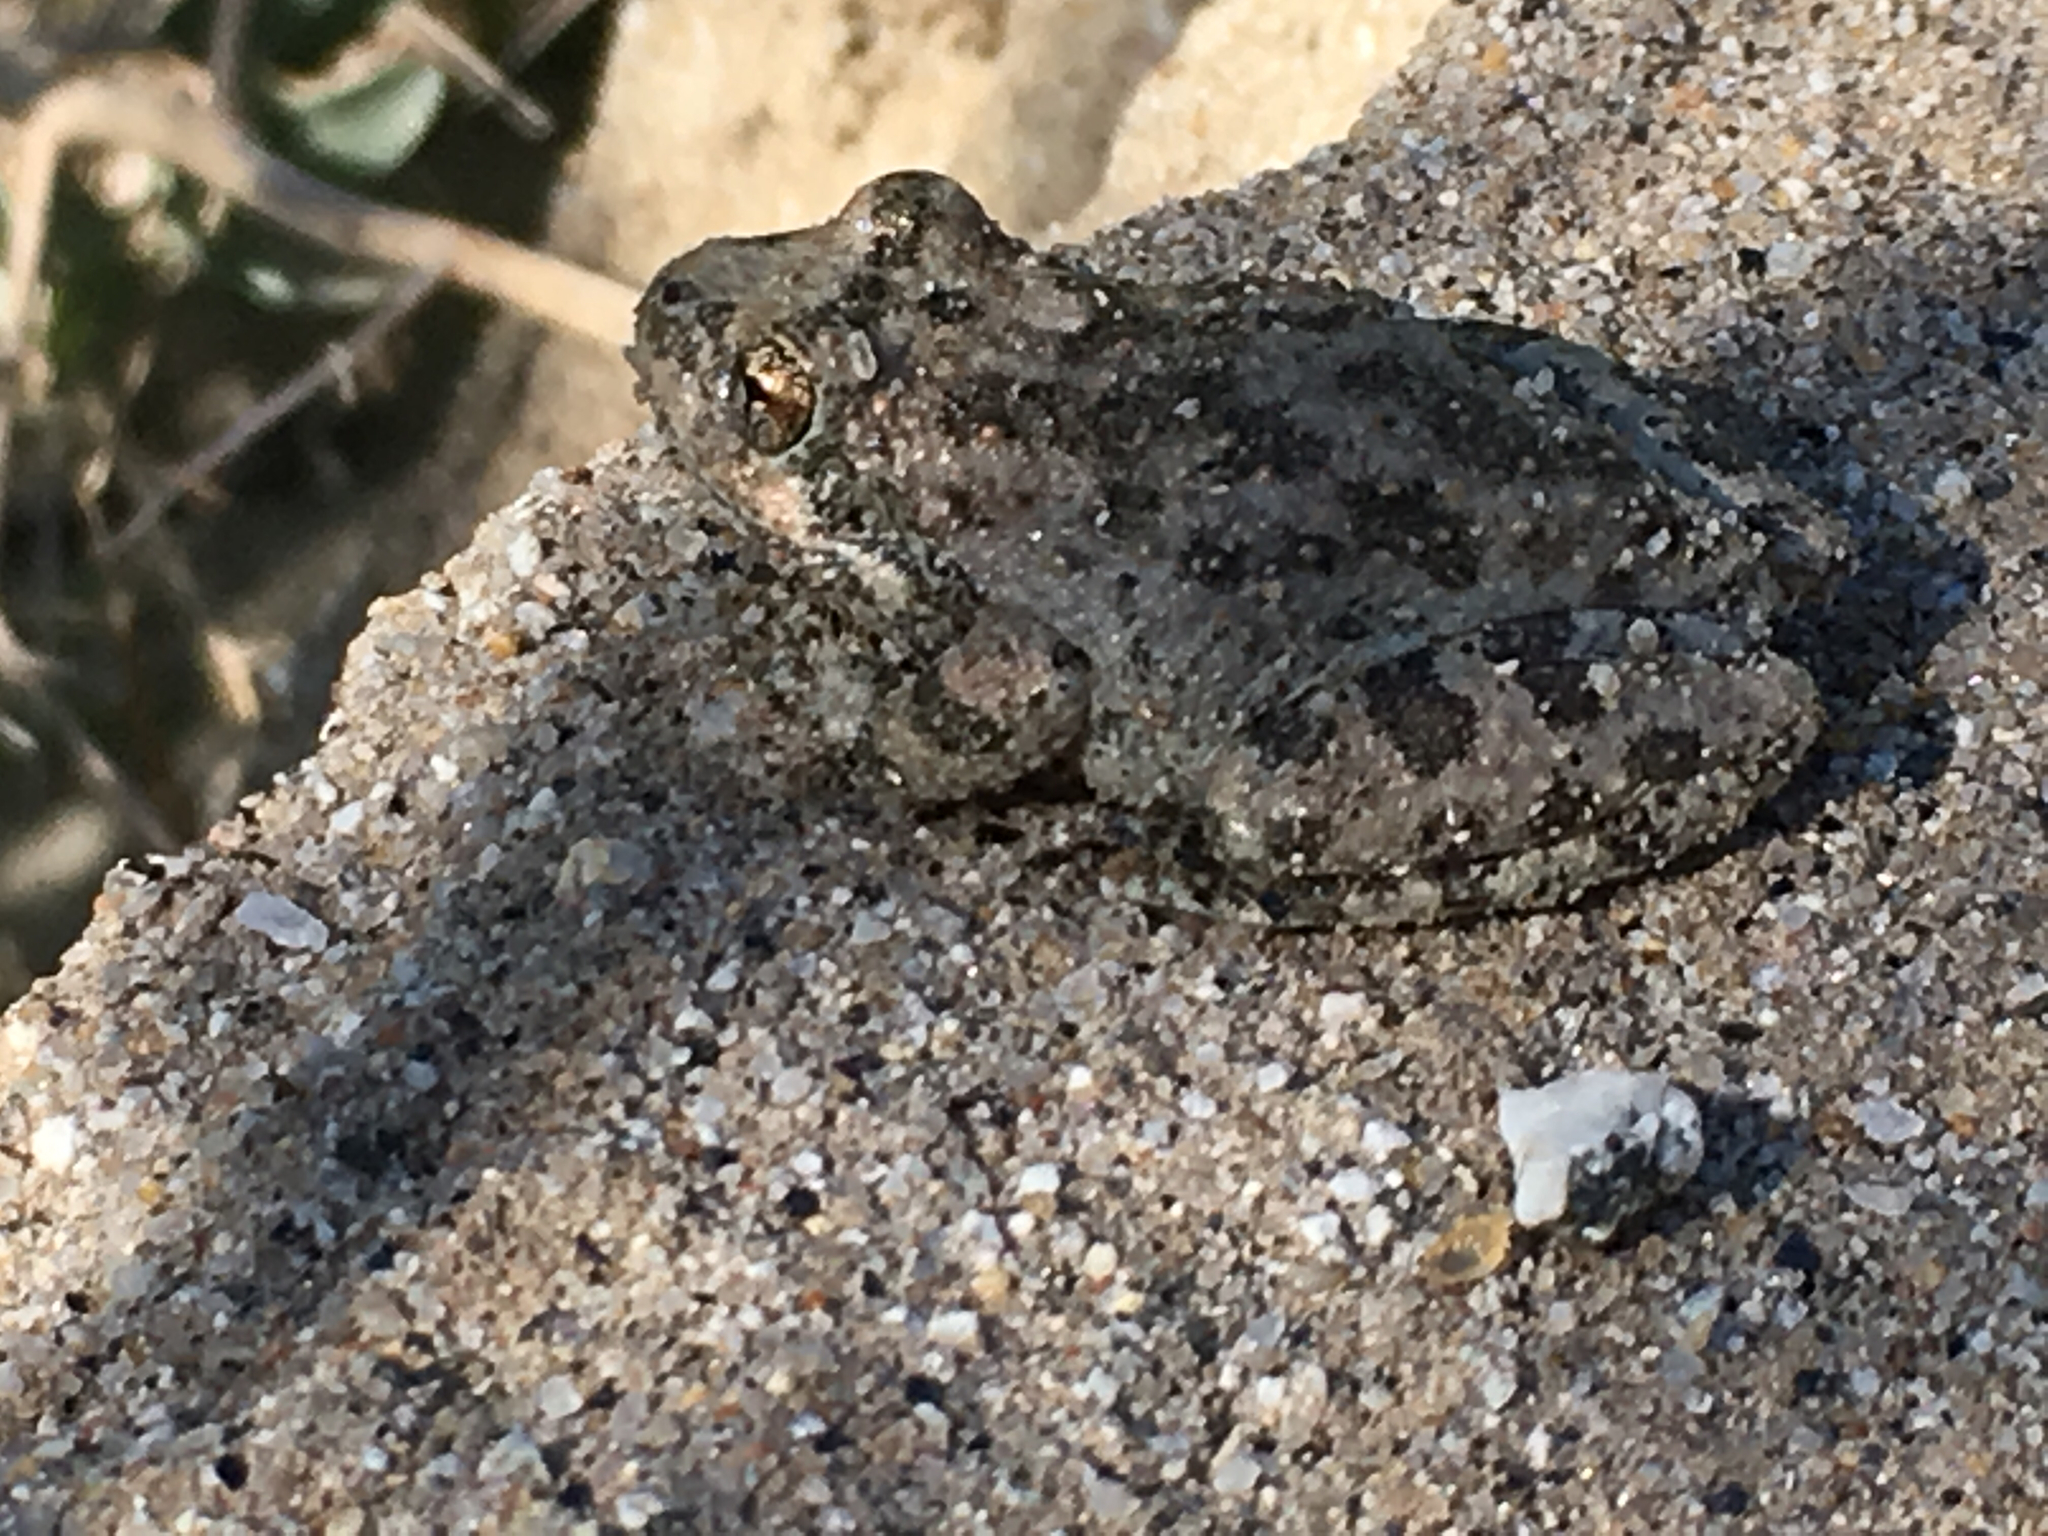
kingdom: Animalia
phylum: Chordata
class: Amphibia
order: Anura
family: Hylidae
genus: Pseudacris
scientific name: Pseudacris cadaverina
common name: California chorus frog
